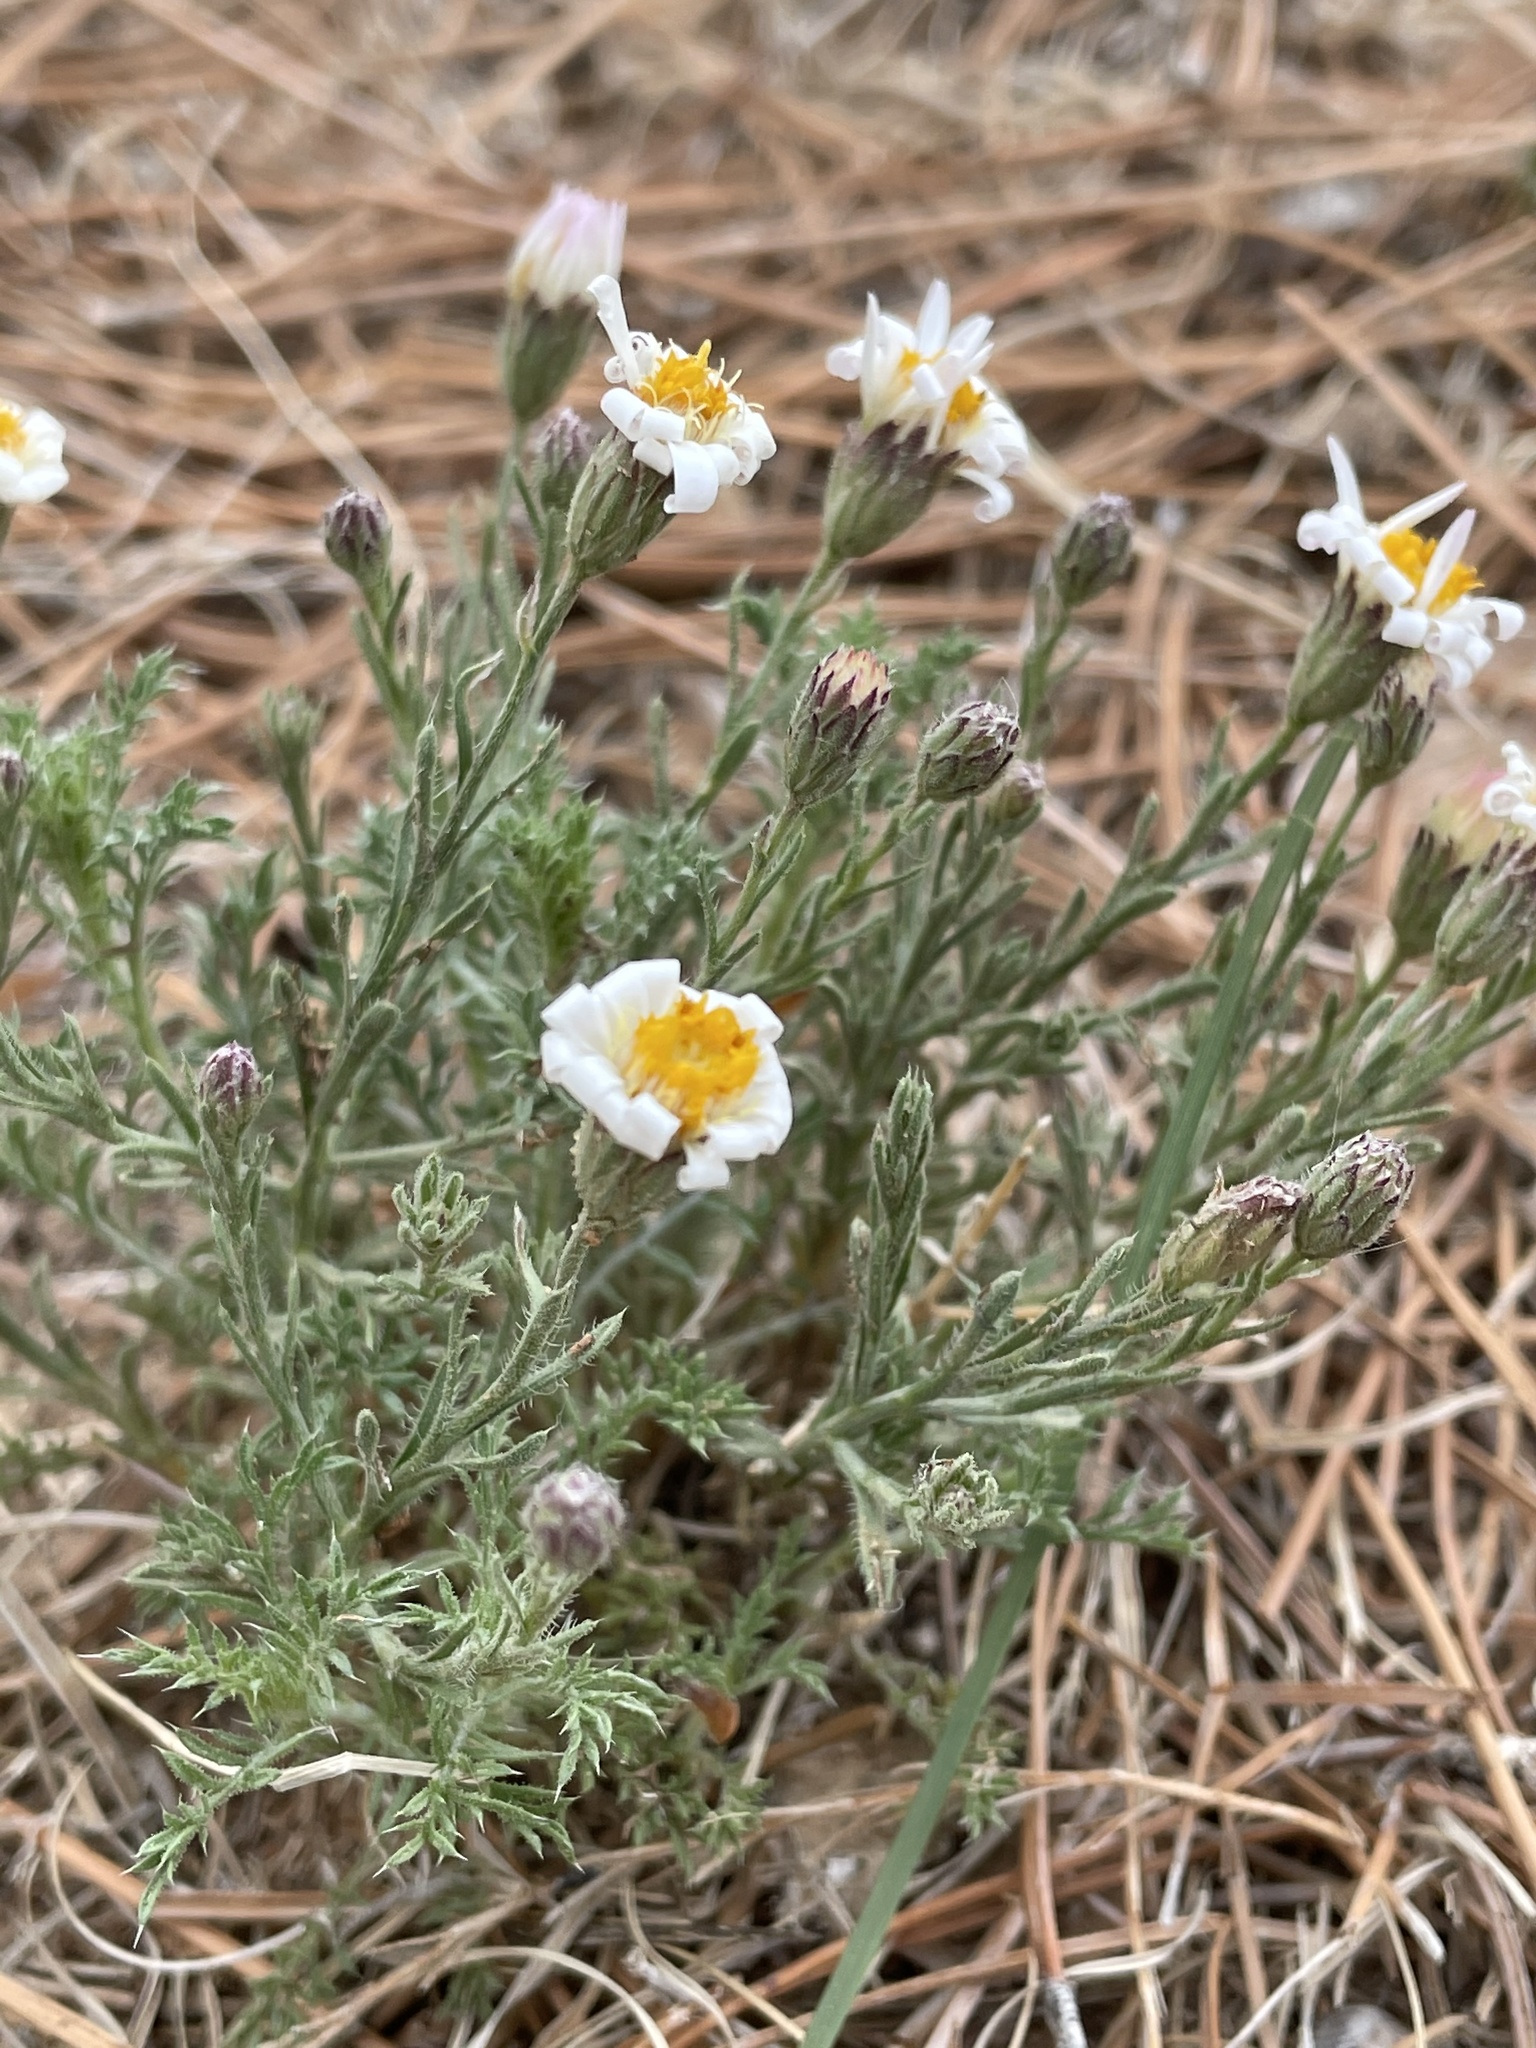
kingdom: Plantae
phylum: Tracheophyta
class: Magnoliopsida
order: Asterales
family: Asteraceae
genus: Chaetopappa
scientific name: Chaetopappa ericoides
